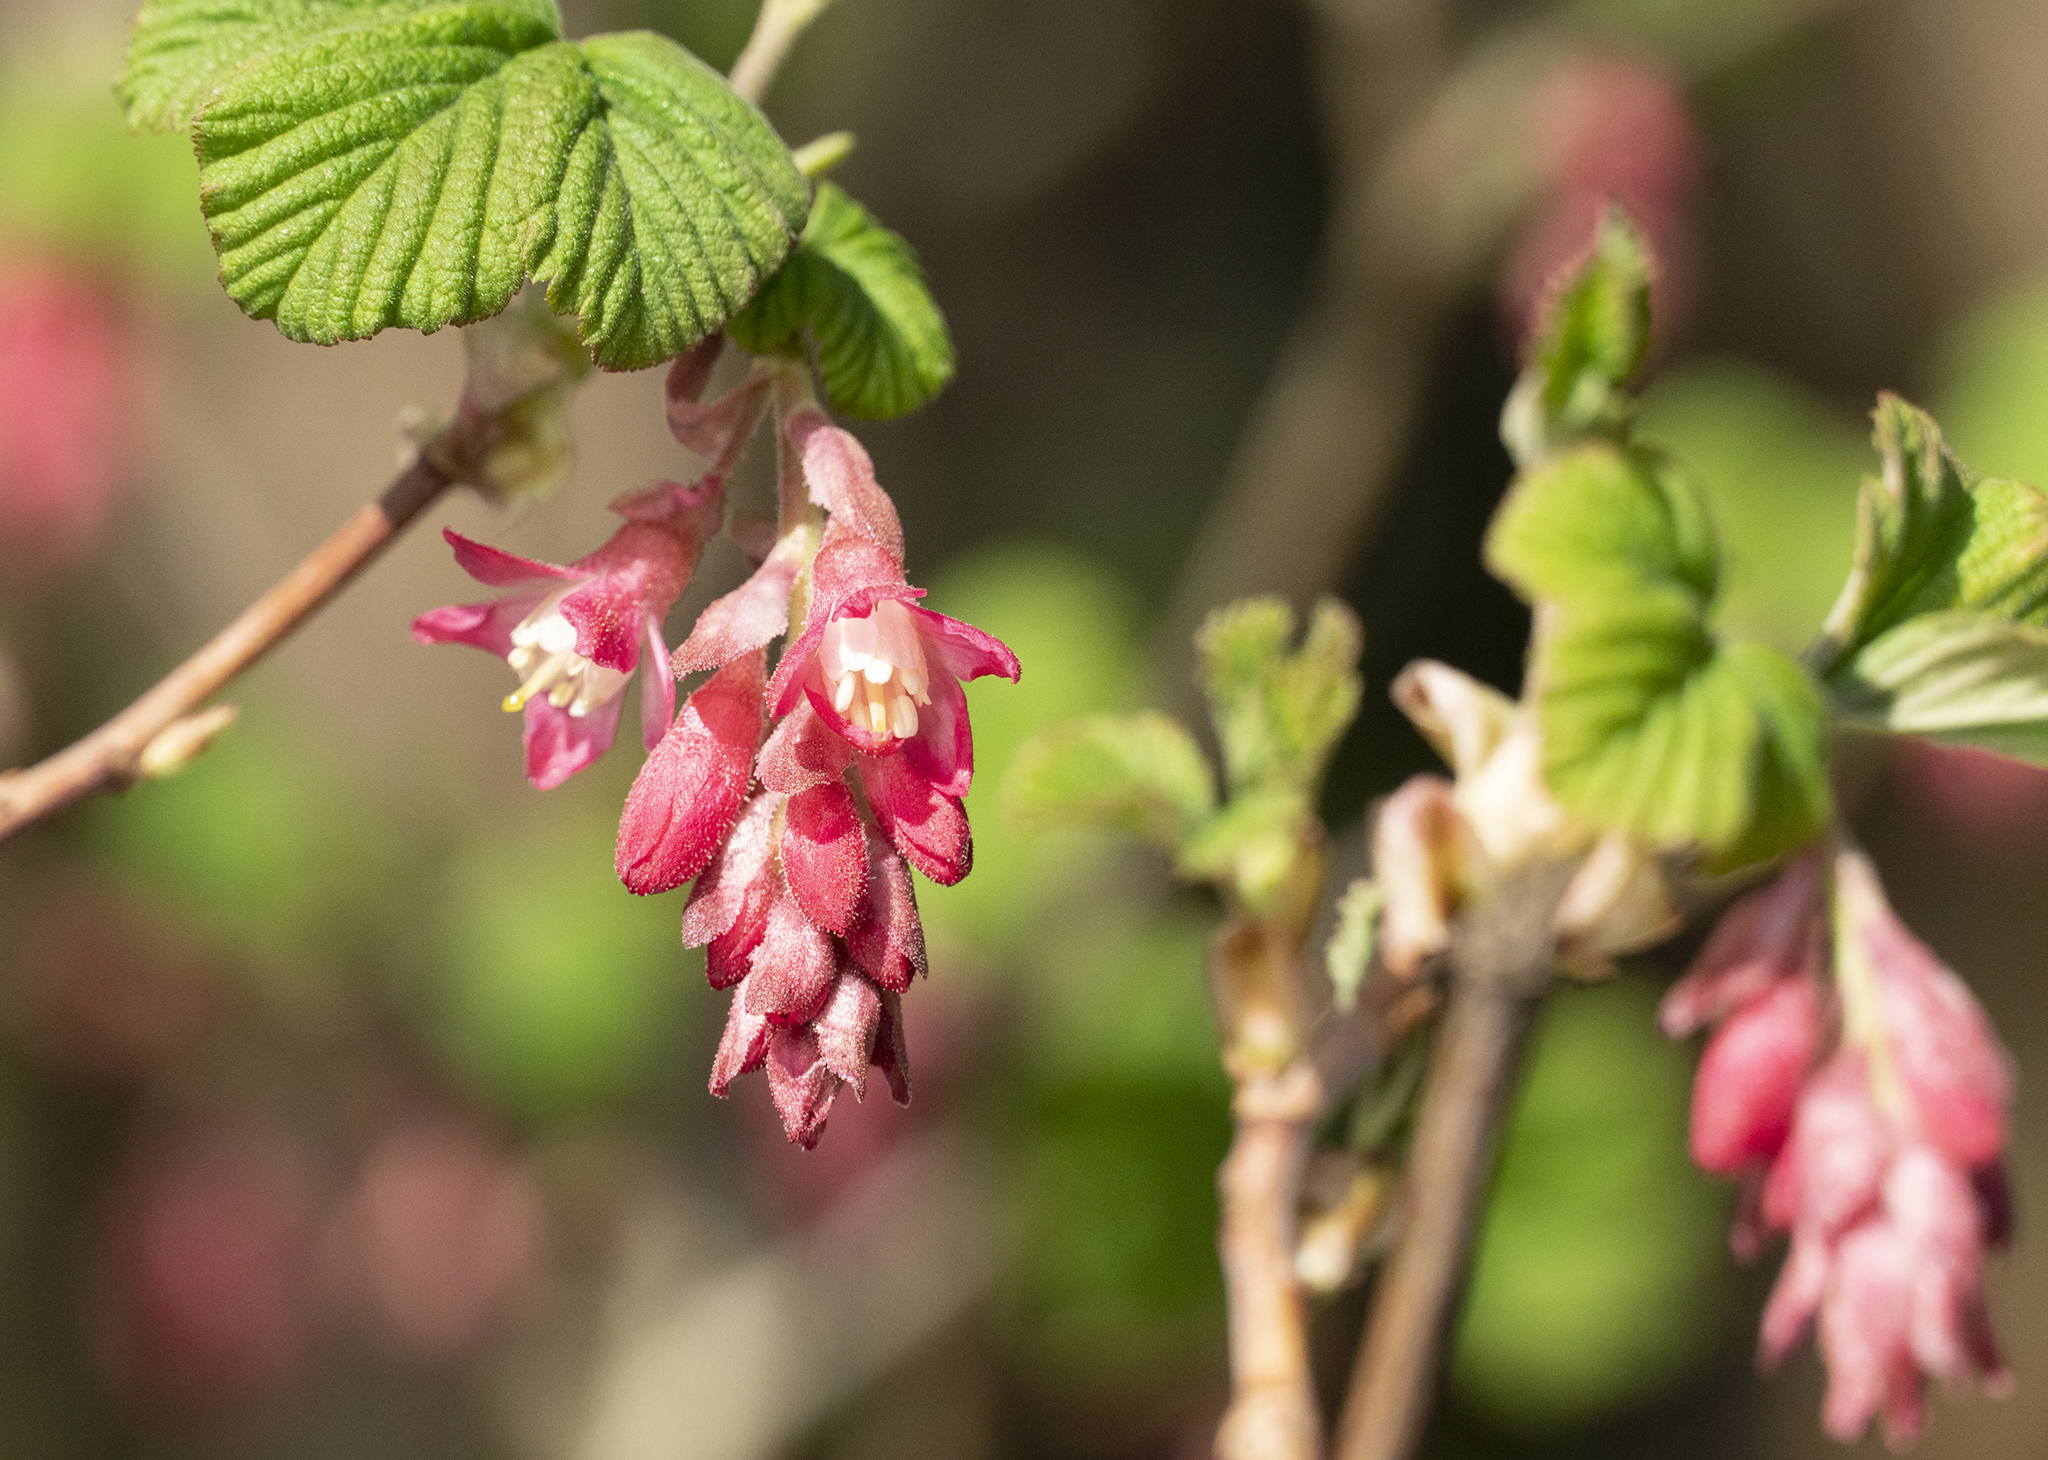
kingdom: Plantae
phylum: Tracheophyta
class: Magnoliopsida
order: Saxifragales
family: Grossulariaceae
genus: Ribes
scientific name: Ribes sanguineum
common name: Flowering currant
